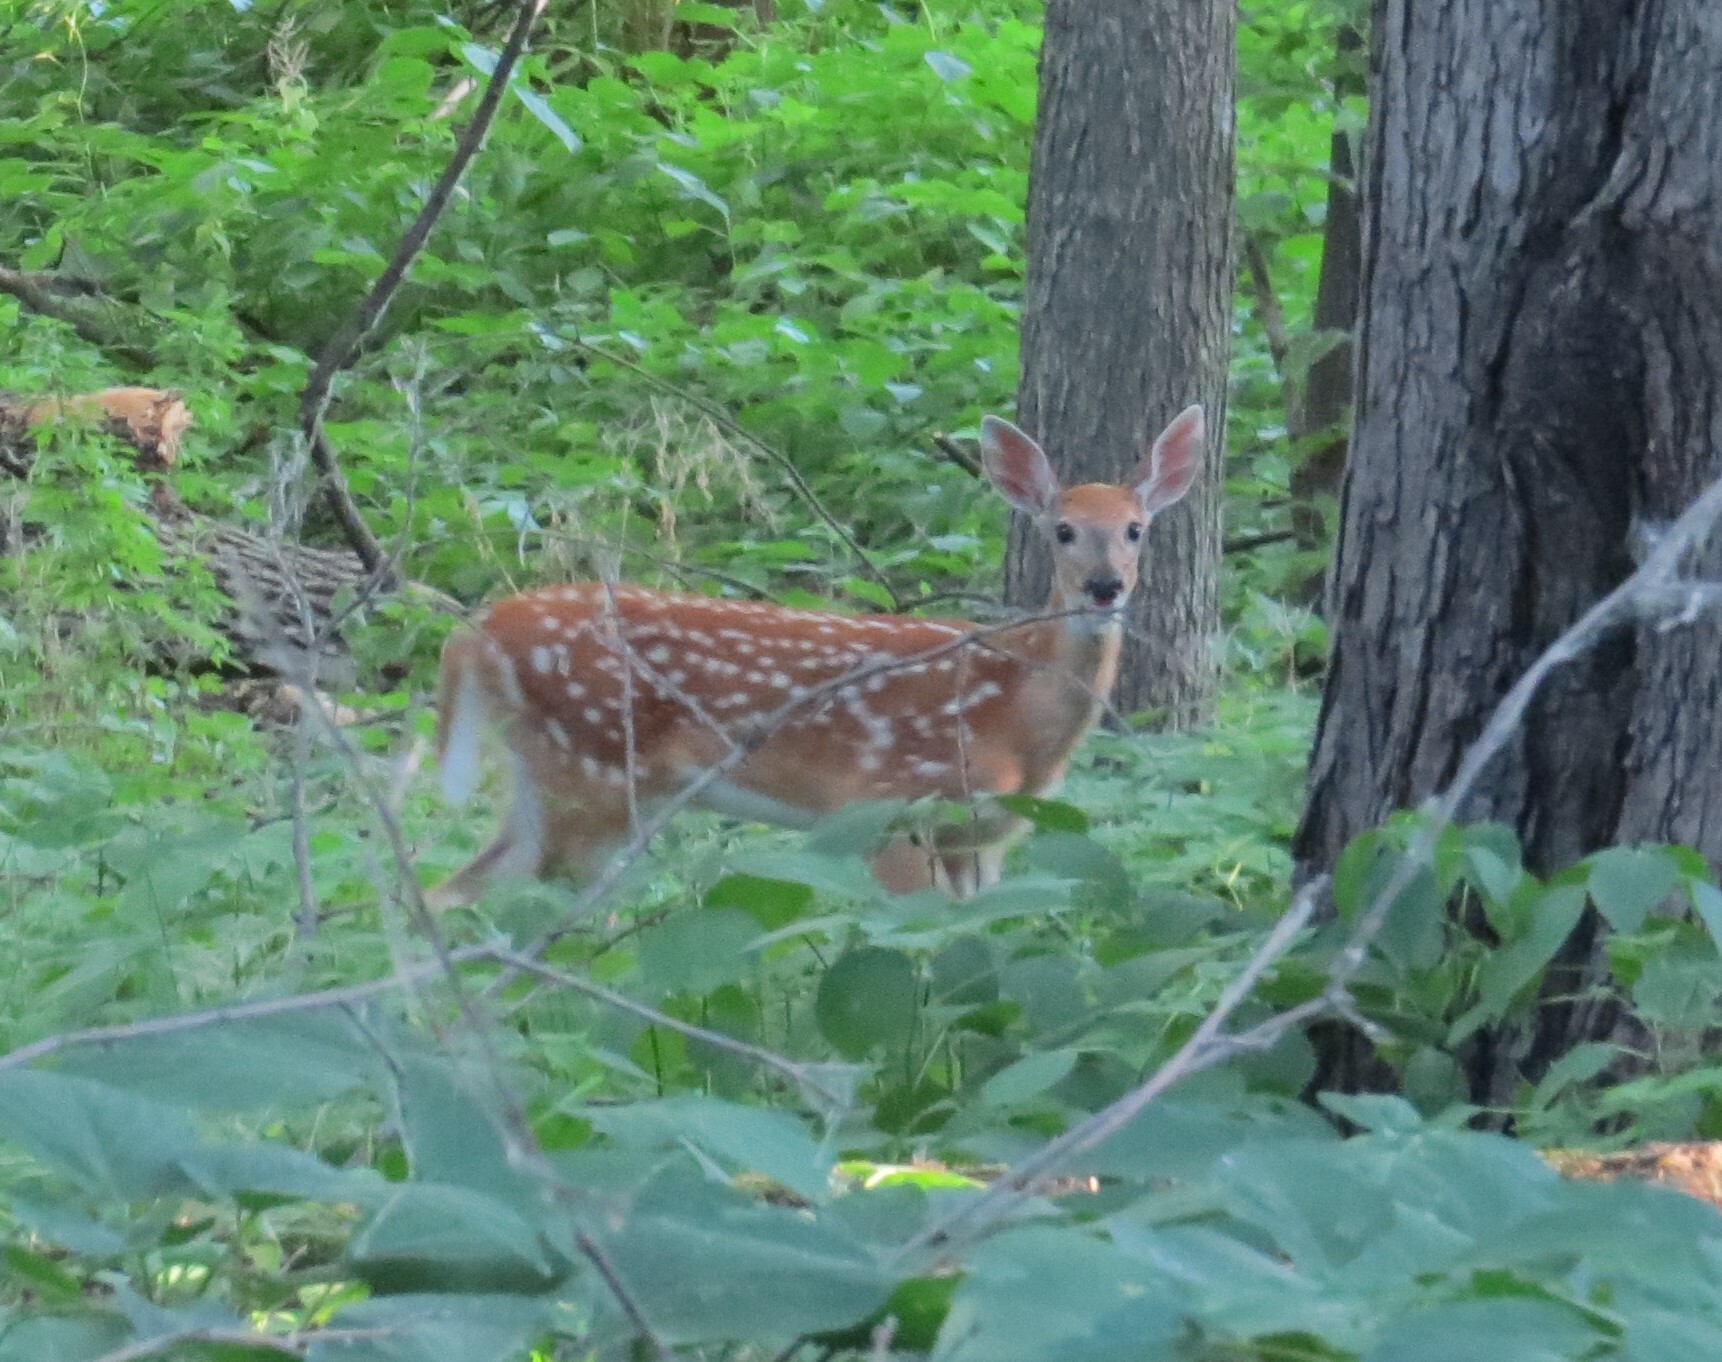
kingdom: Animalia
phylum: Chordata
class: Mammalia
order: Artiodactyla
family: Cervidae
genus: Odocoileus
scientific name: Odocoileus virginianus
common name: White-tailed deer
